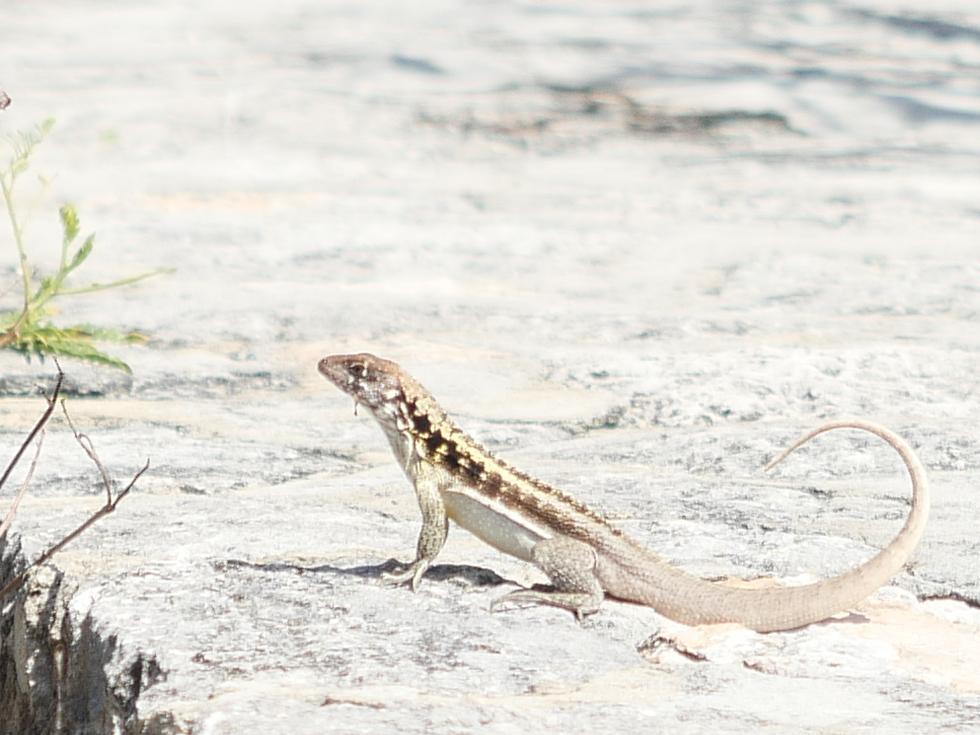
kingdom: Animalia
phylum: Chordata
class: Squamata
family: Leiocephalidae
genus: Leiocephalus
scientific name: Leiocephalus psammodromus
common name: Bastion cay curlytail lizard
